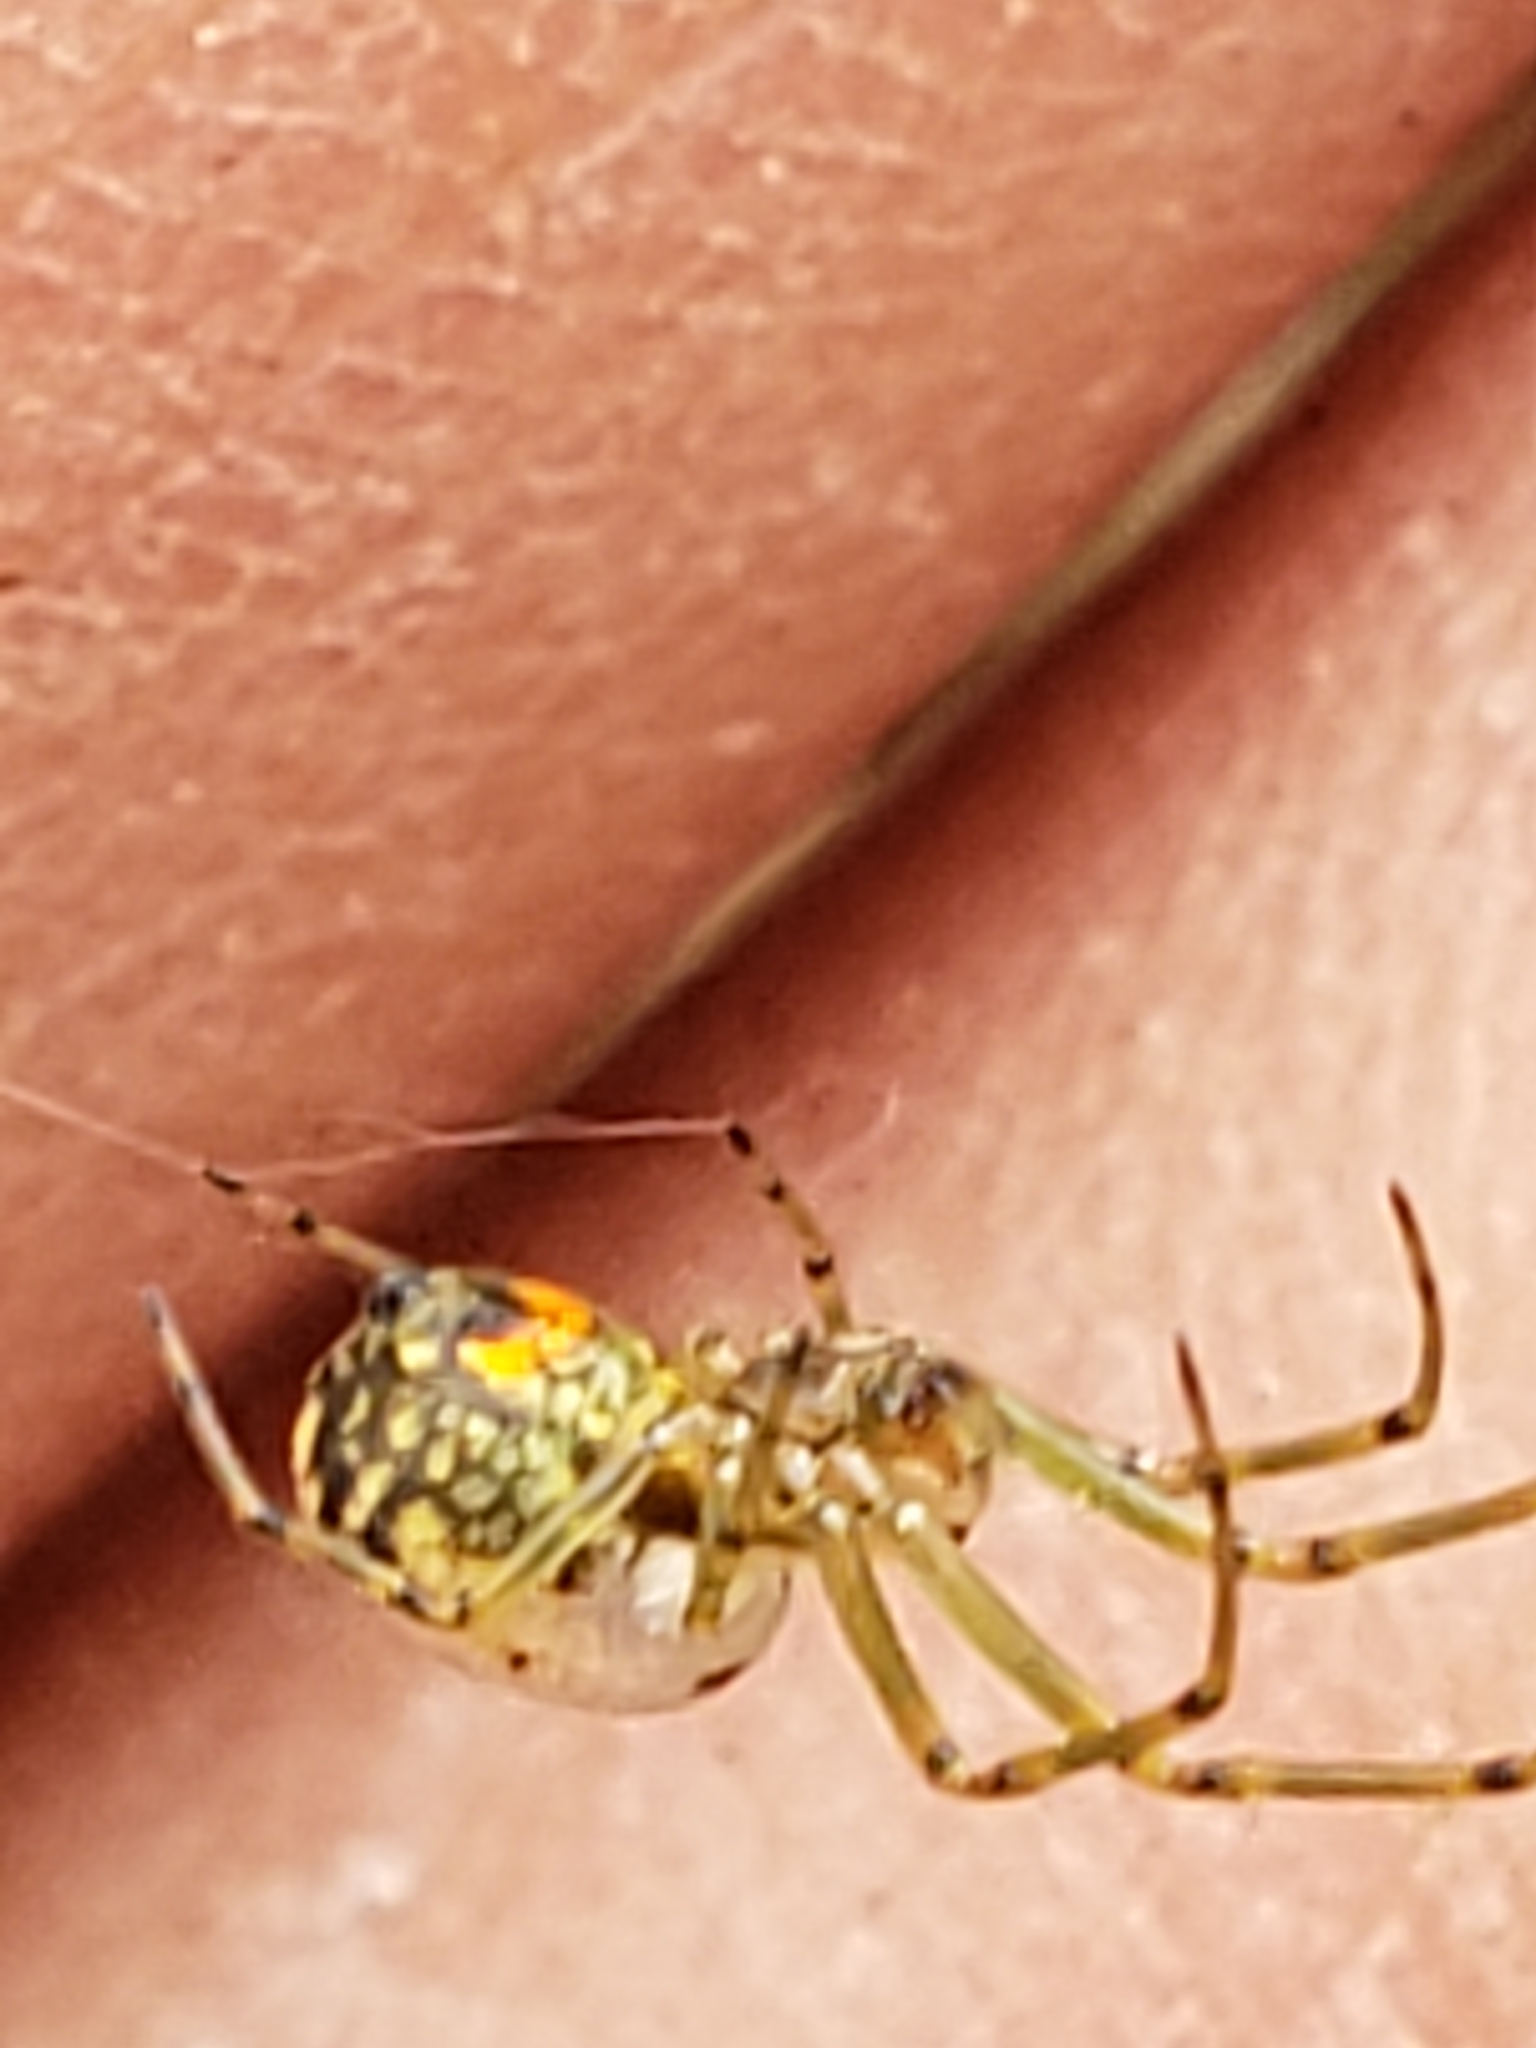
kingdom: Animalia
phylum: Arthropoda
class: Arachnida
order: Araneae
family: Tetragnathidae
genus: Leucauge
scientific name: Leucauge venusta
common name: Longjawed orb weavers
